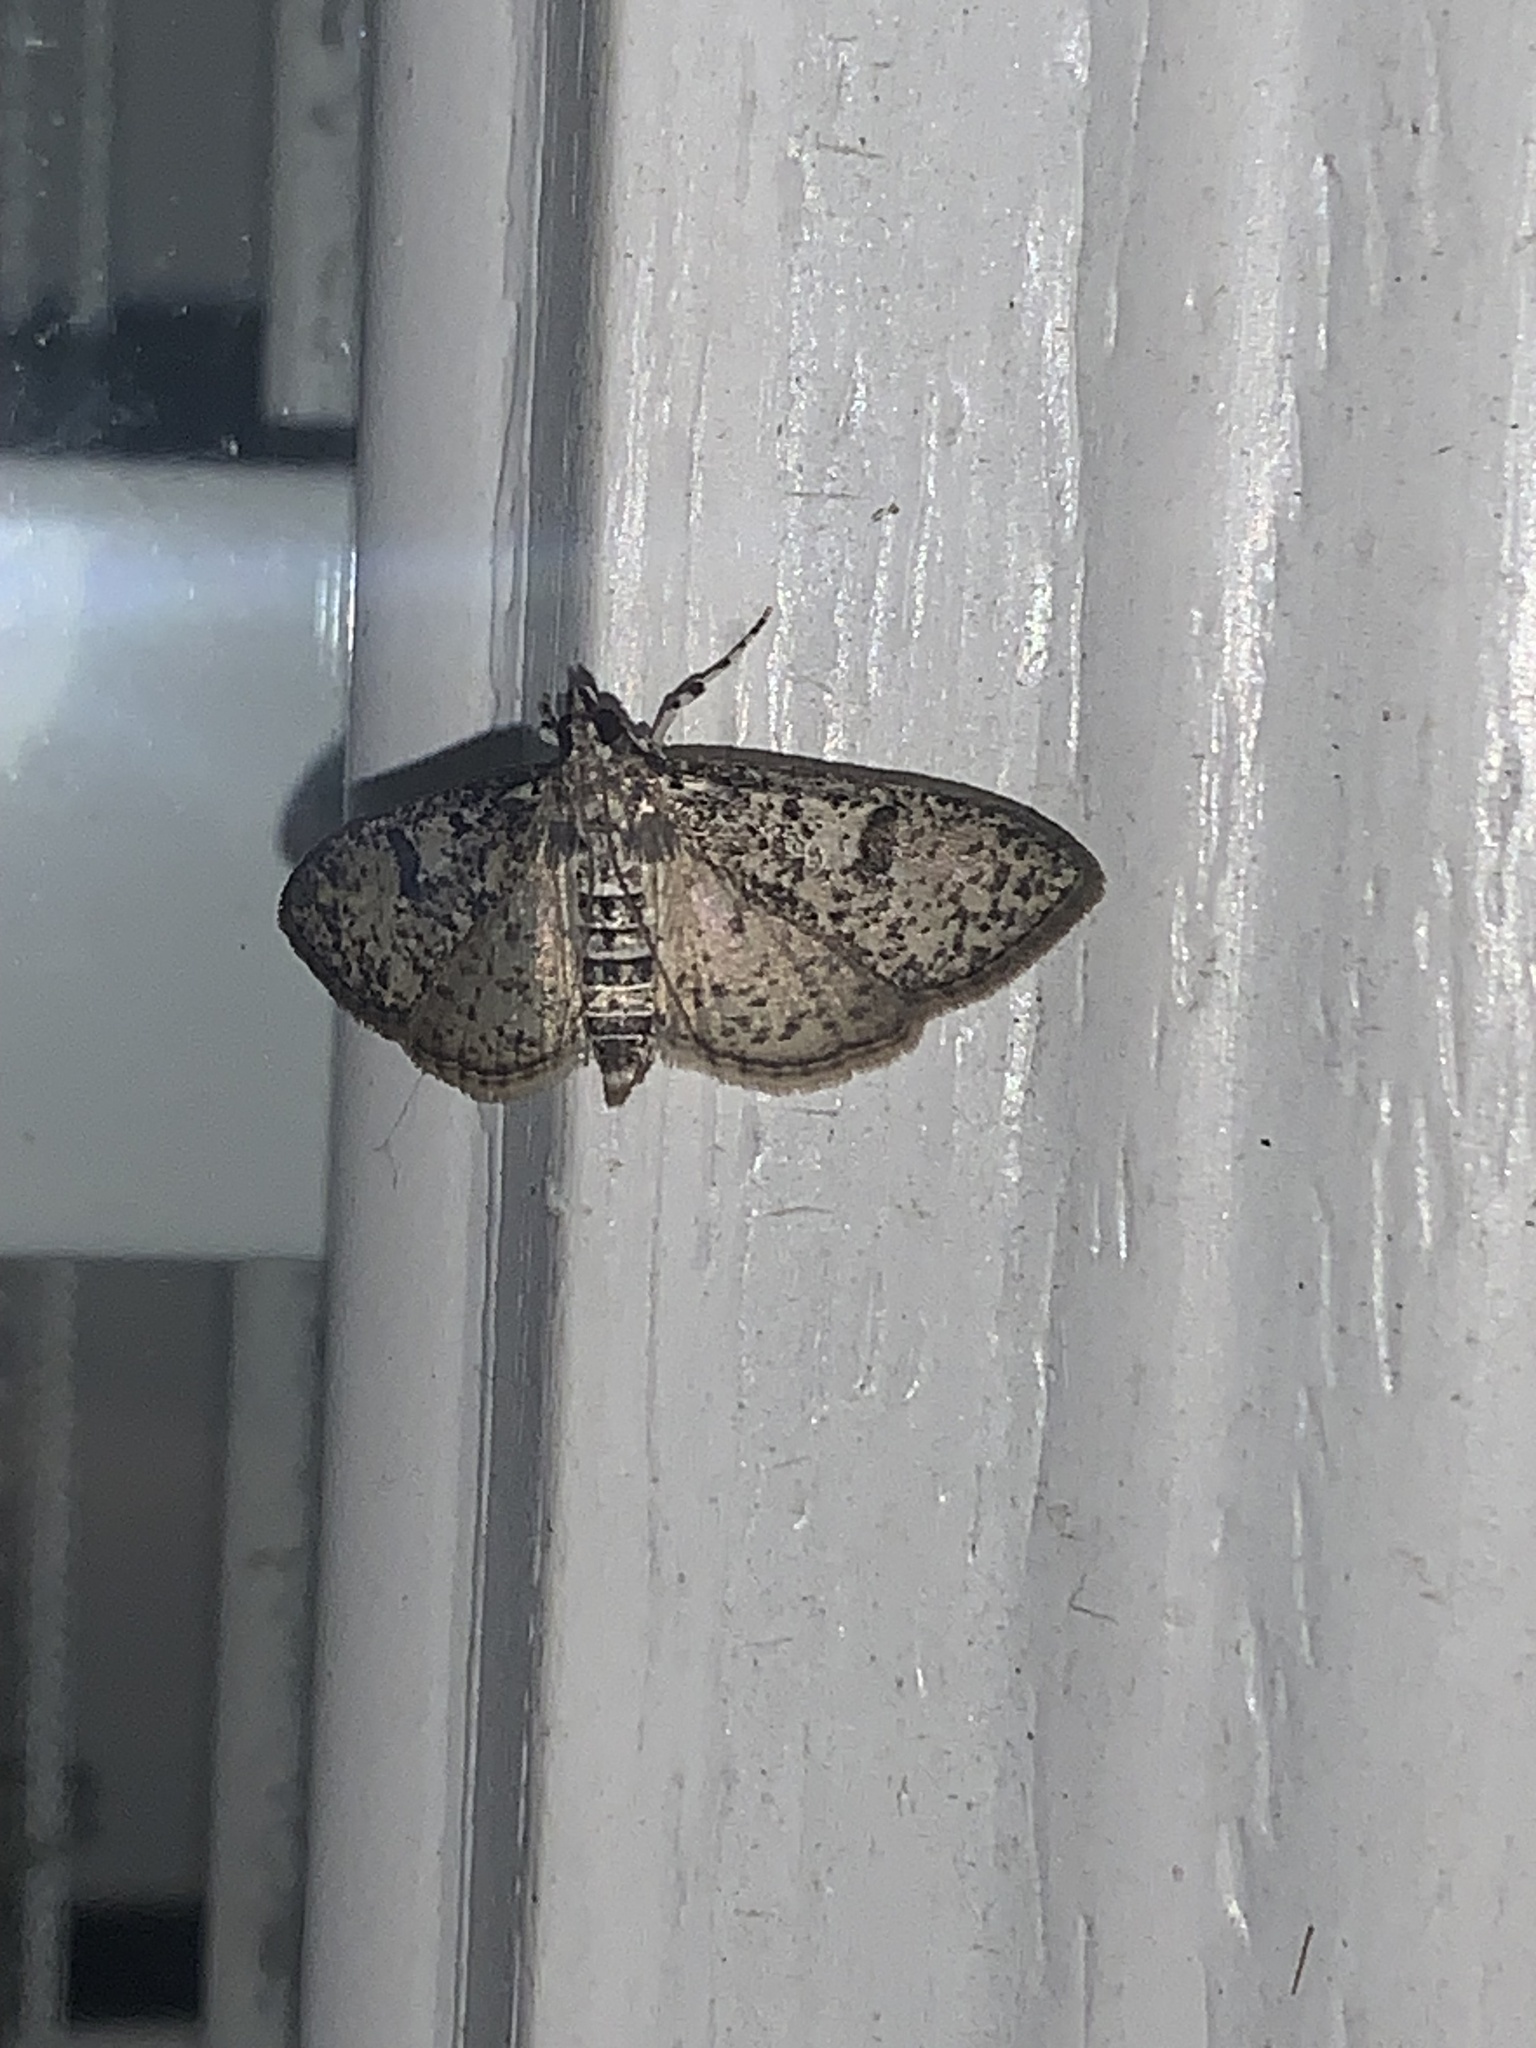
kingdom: Animalia
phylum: Arthropoda
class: Insecta
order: Lepidoptera
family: Crambidae
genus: Palpita
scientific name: Palpita magniferalis
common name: Splendid palpita moth
